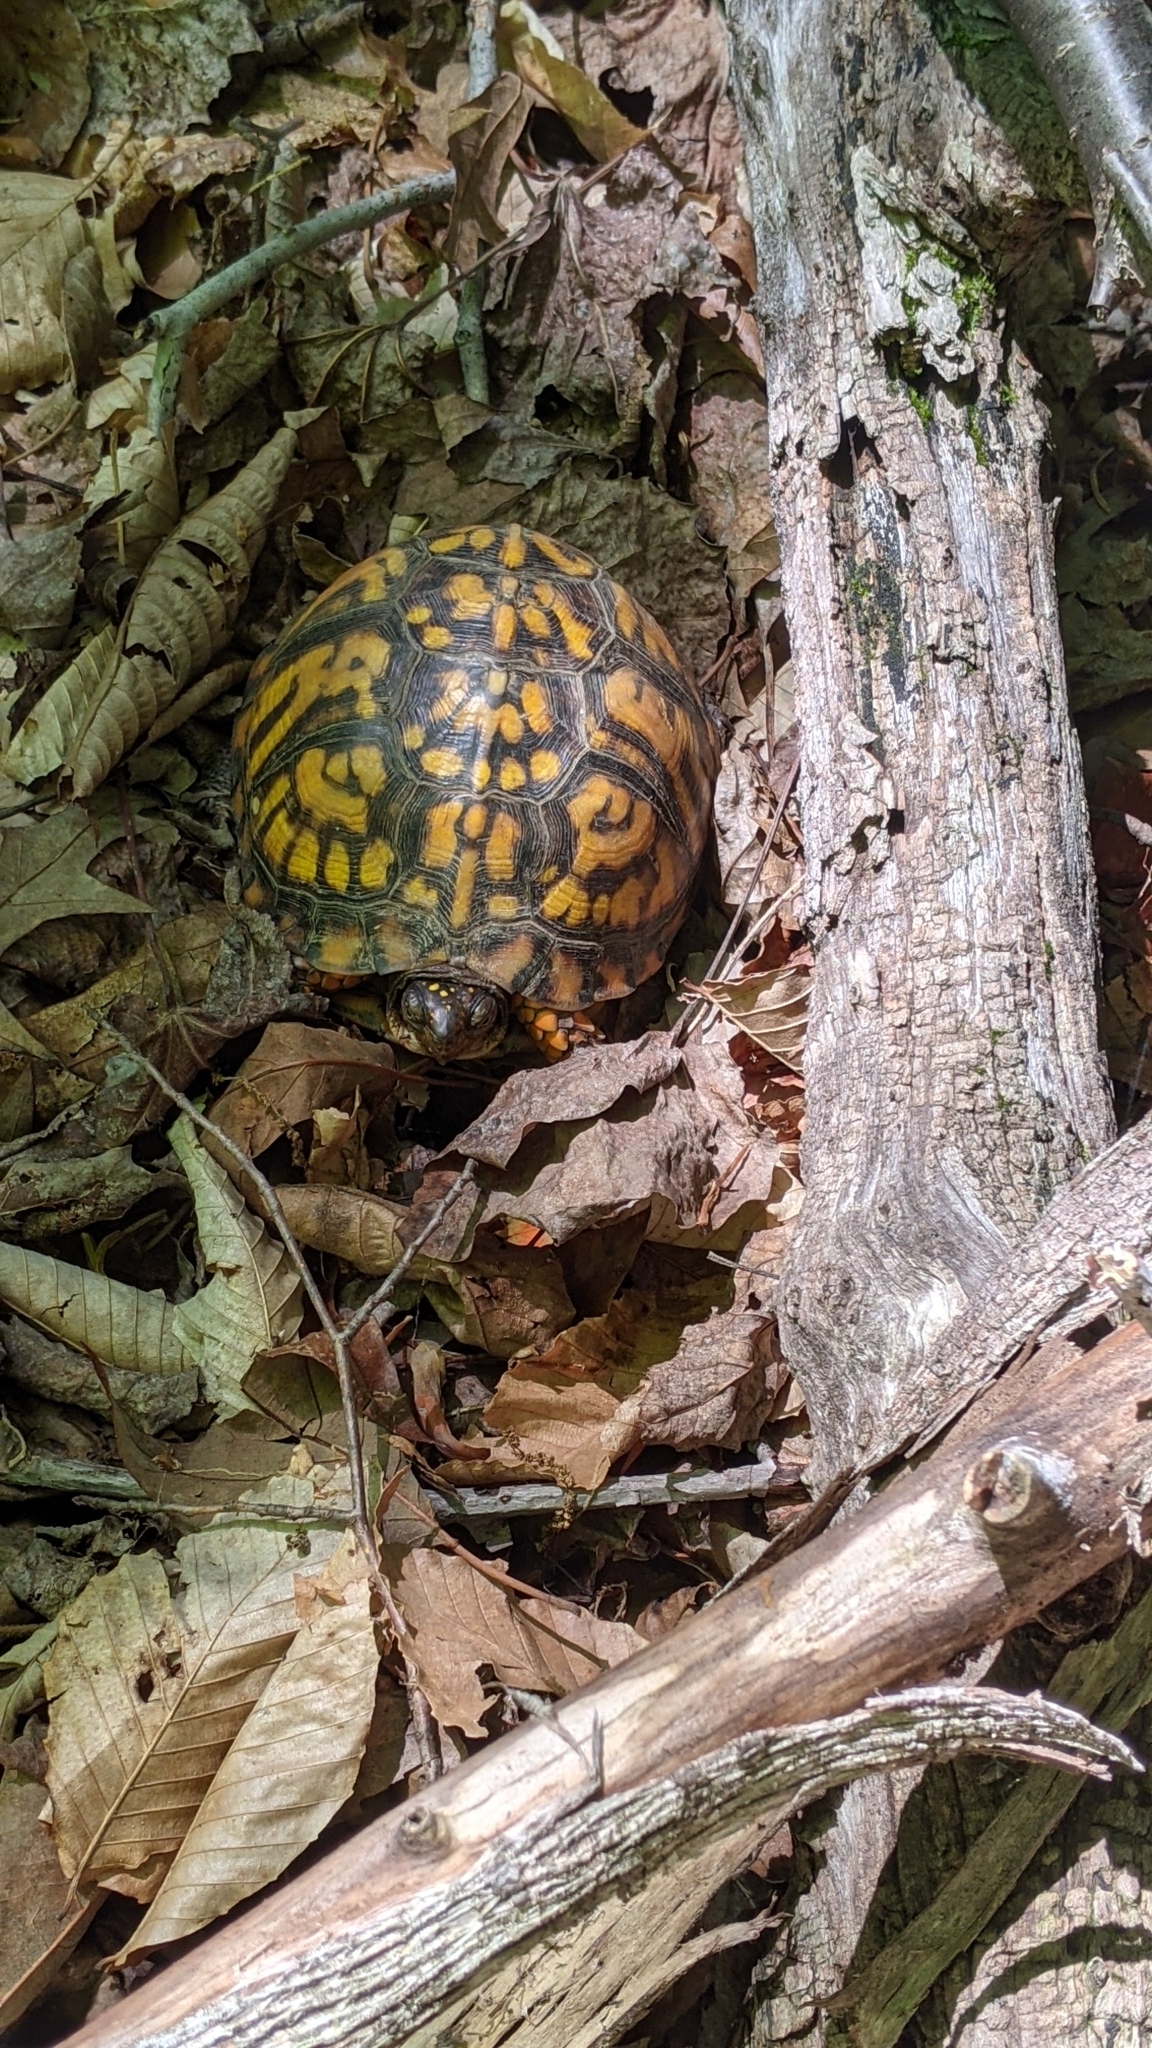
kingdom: Animalia
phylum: Chordata
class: Testudines
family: Emydidae
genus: Terrapene
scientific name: Terrapene carolina
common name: Common box turtle
